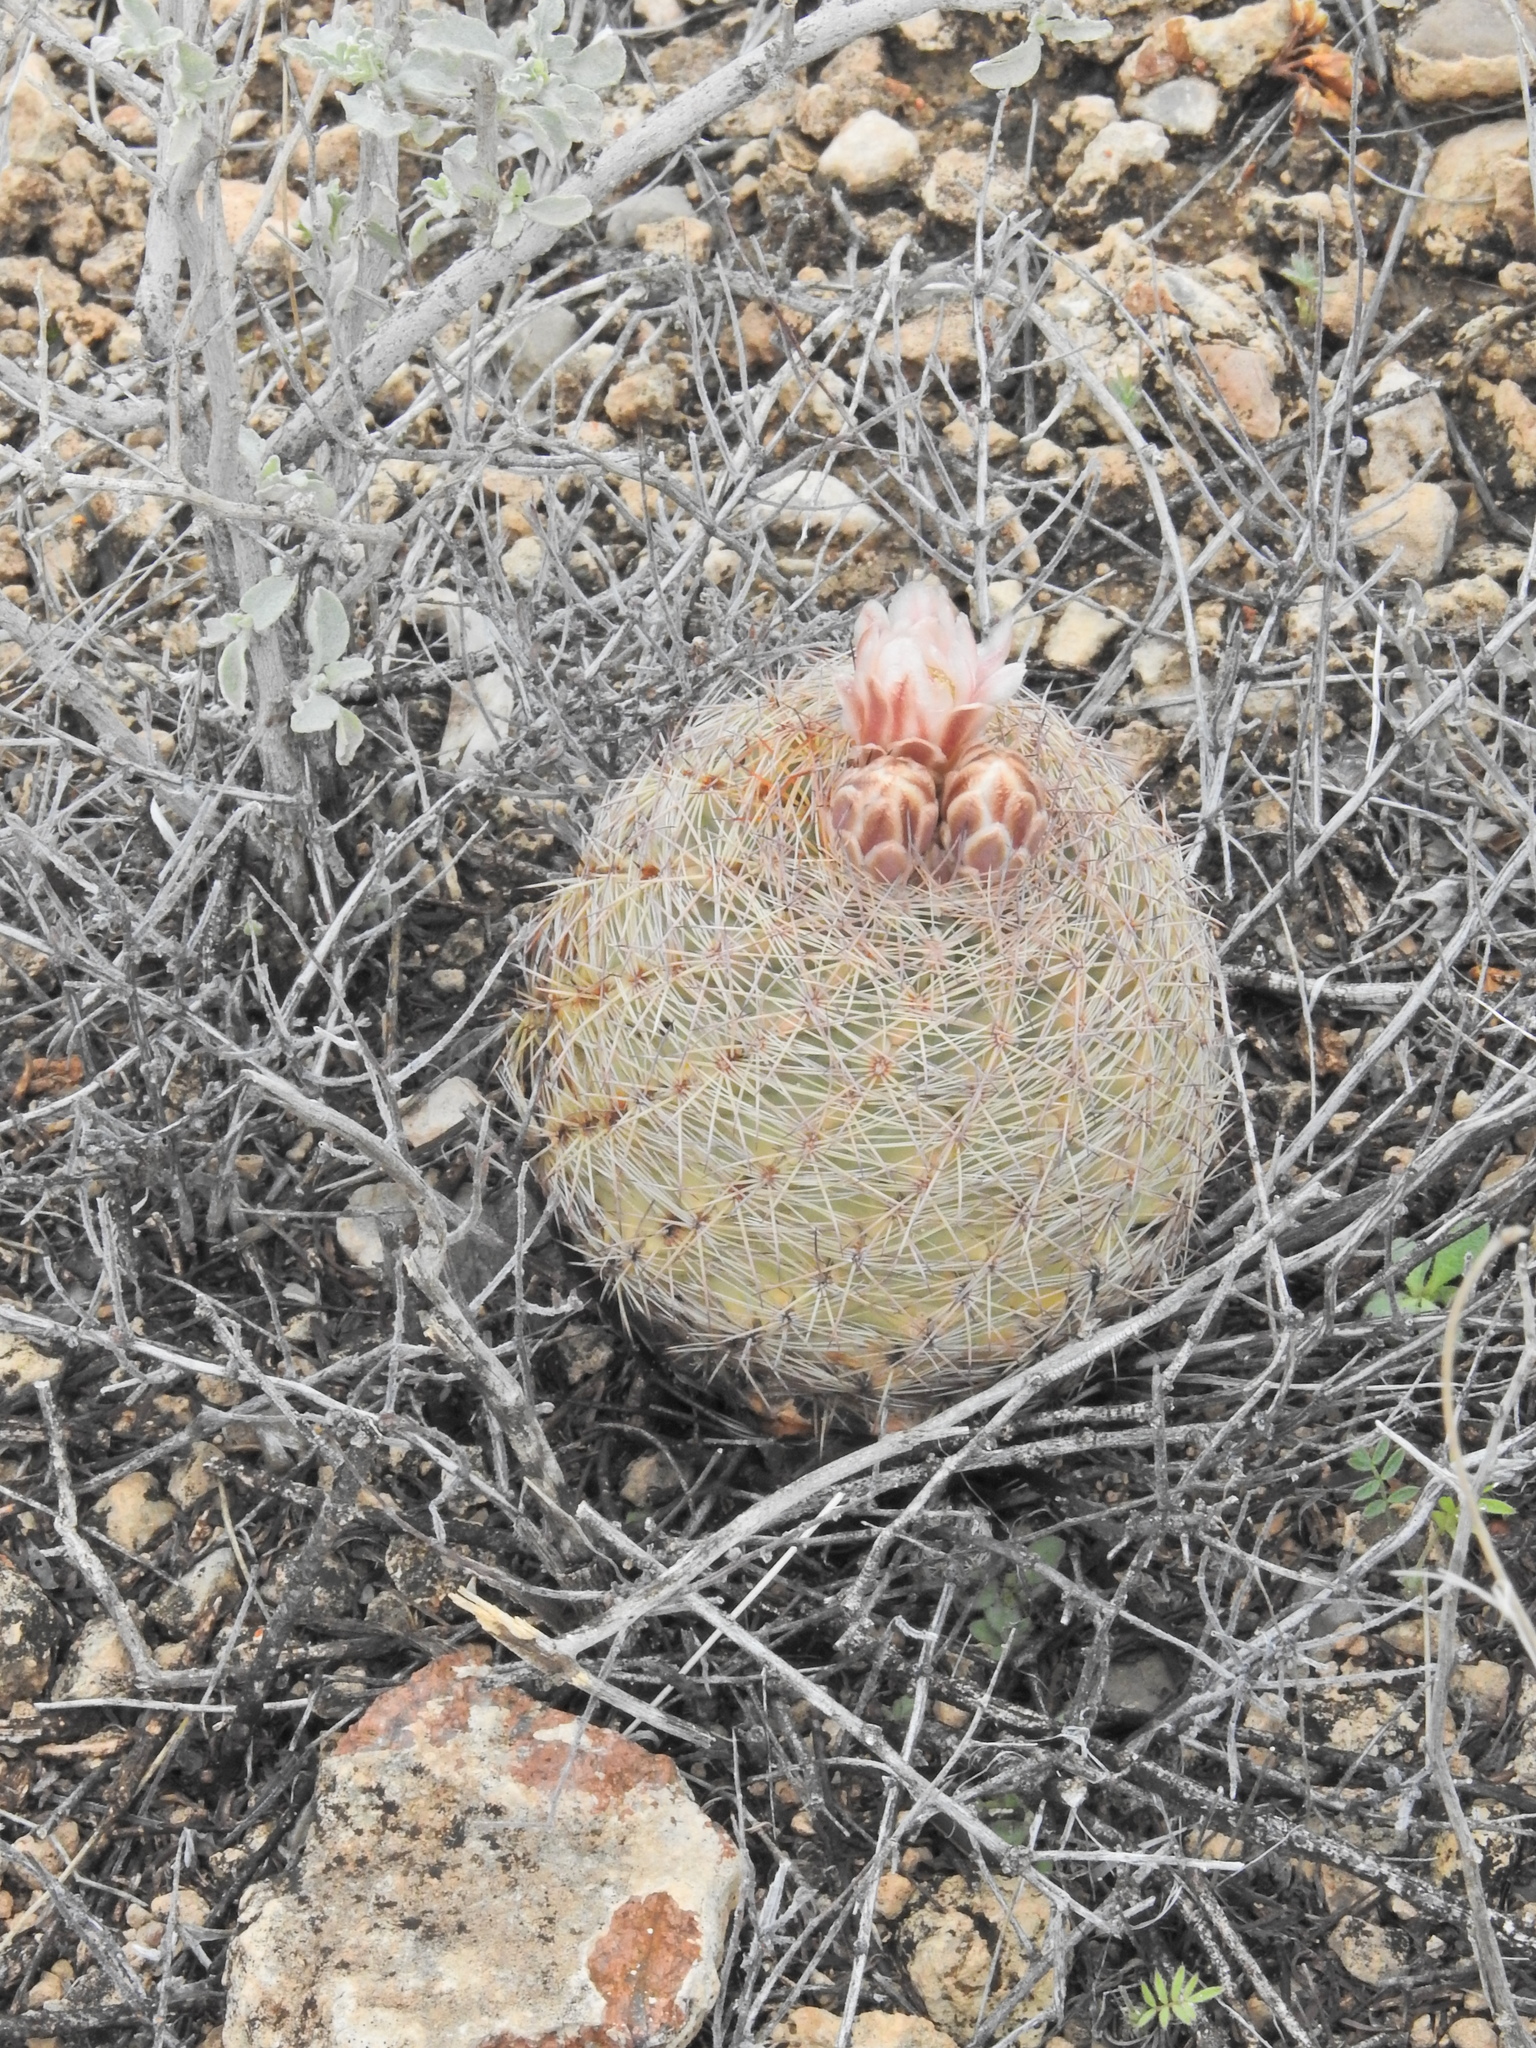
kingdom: Plantae
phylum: Tracheophyta
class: Magnoliopsida
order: Caryophyllales
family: Cactaceae
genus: Sclerocactus
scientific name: Sclerocactus intertextus
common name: White fish-hook cactus
